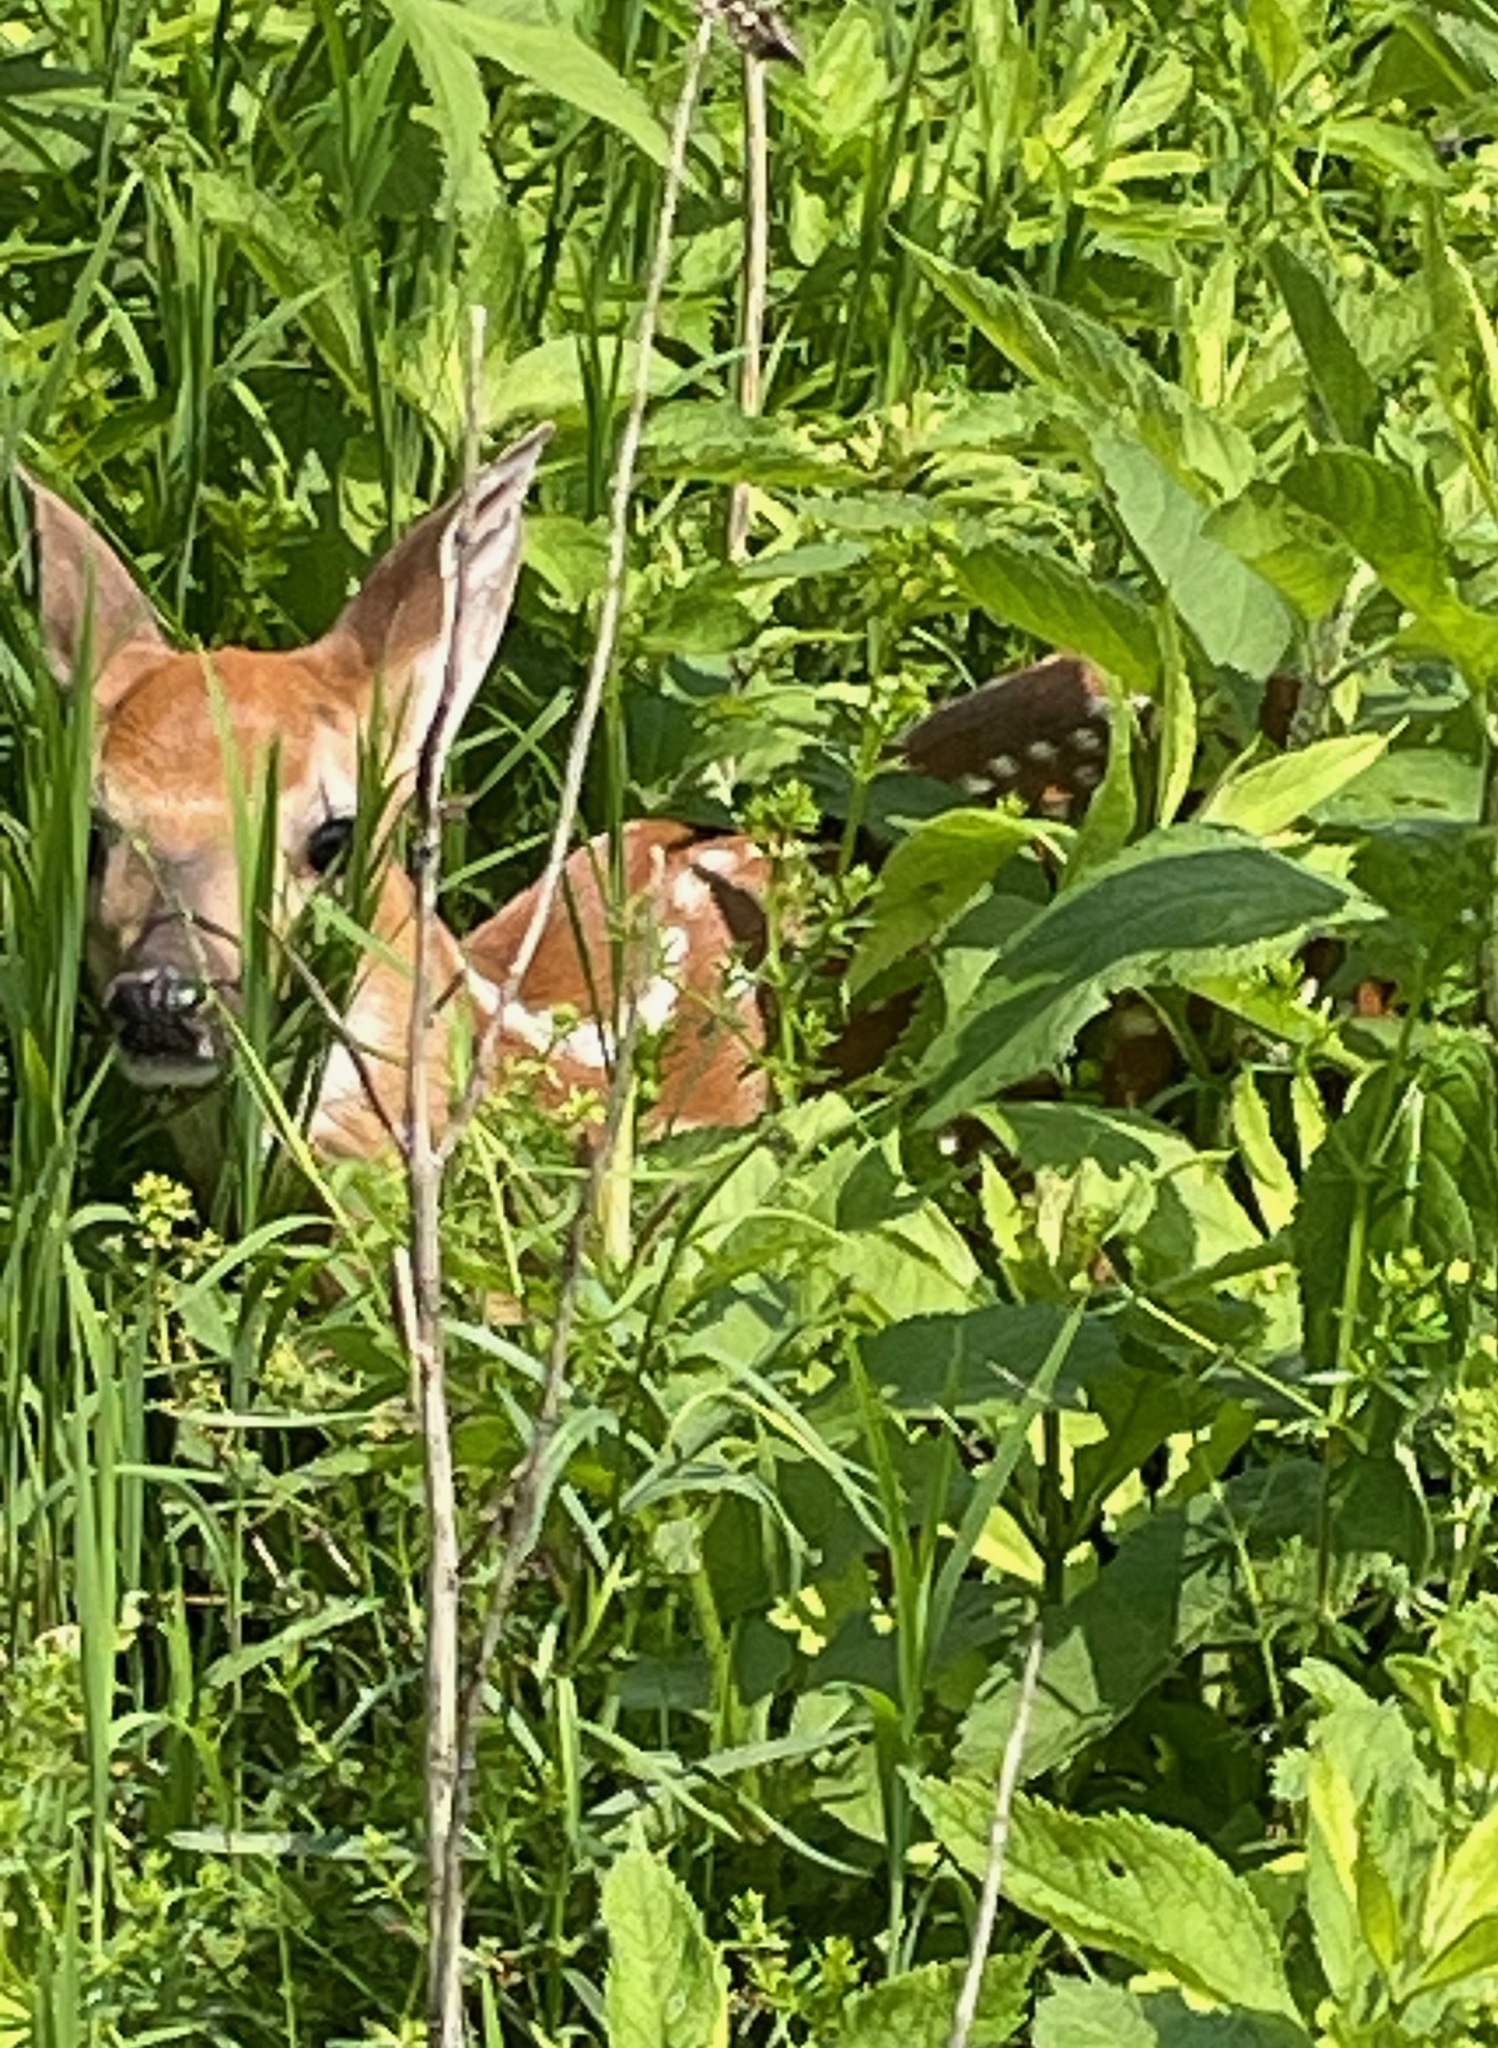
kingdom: Animalia
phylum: Chordata
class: Mammalia
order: Artiodactyla
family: Cervidae
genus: Odocoileus
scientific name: Odocoileus virginianus
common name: White-tailed deer
